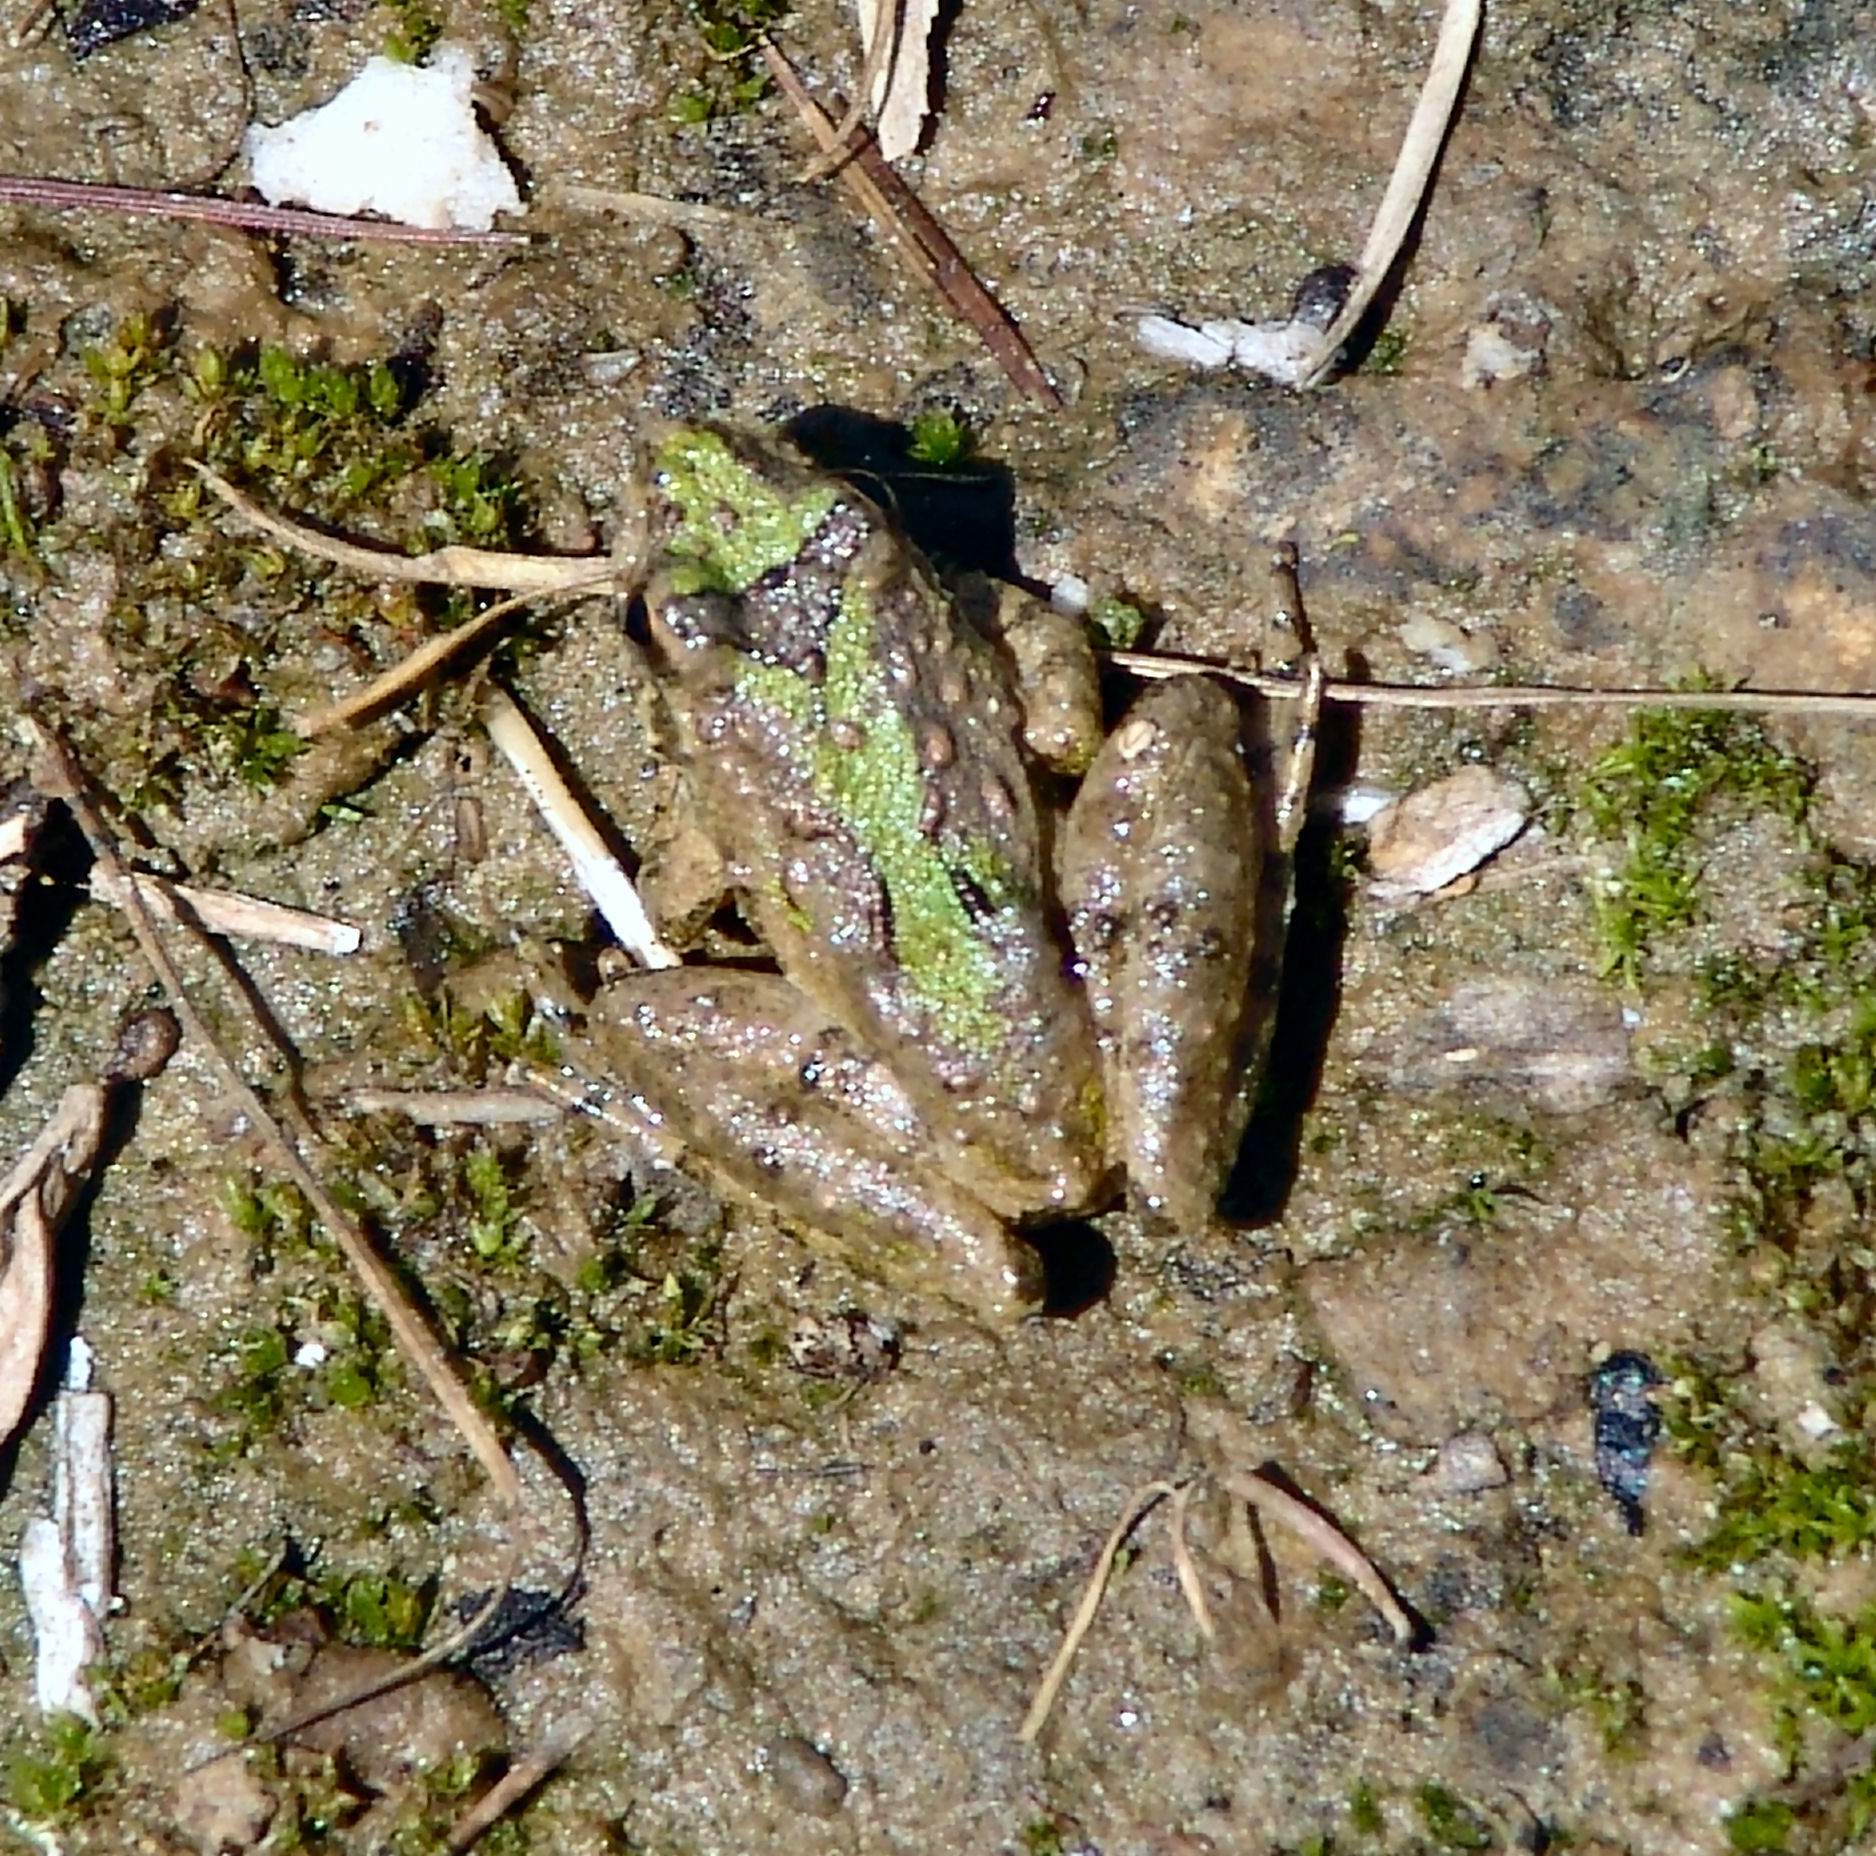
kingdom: Animalia
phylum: Chordata
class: Amphibia
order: Anura
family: Hylidae
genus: Acris
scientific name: Acris blanchardi
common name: Blanchard's cricket frog
